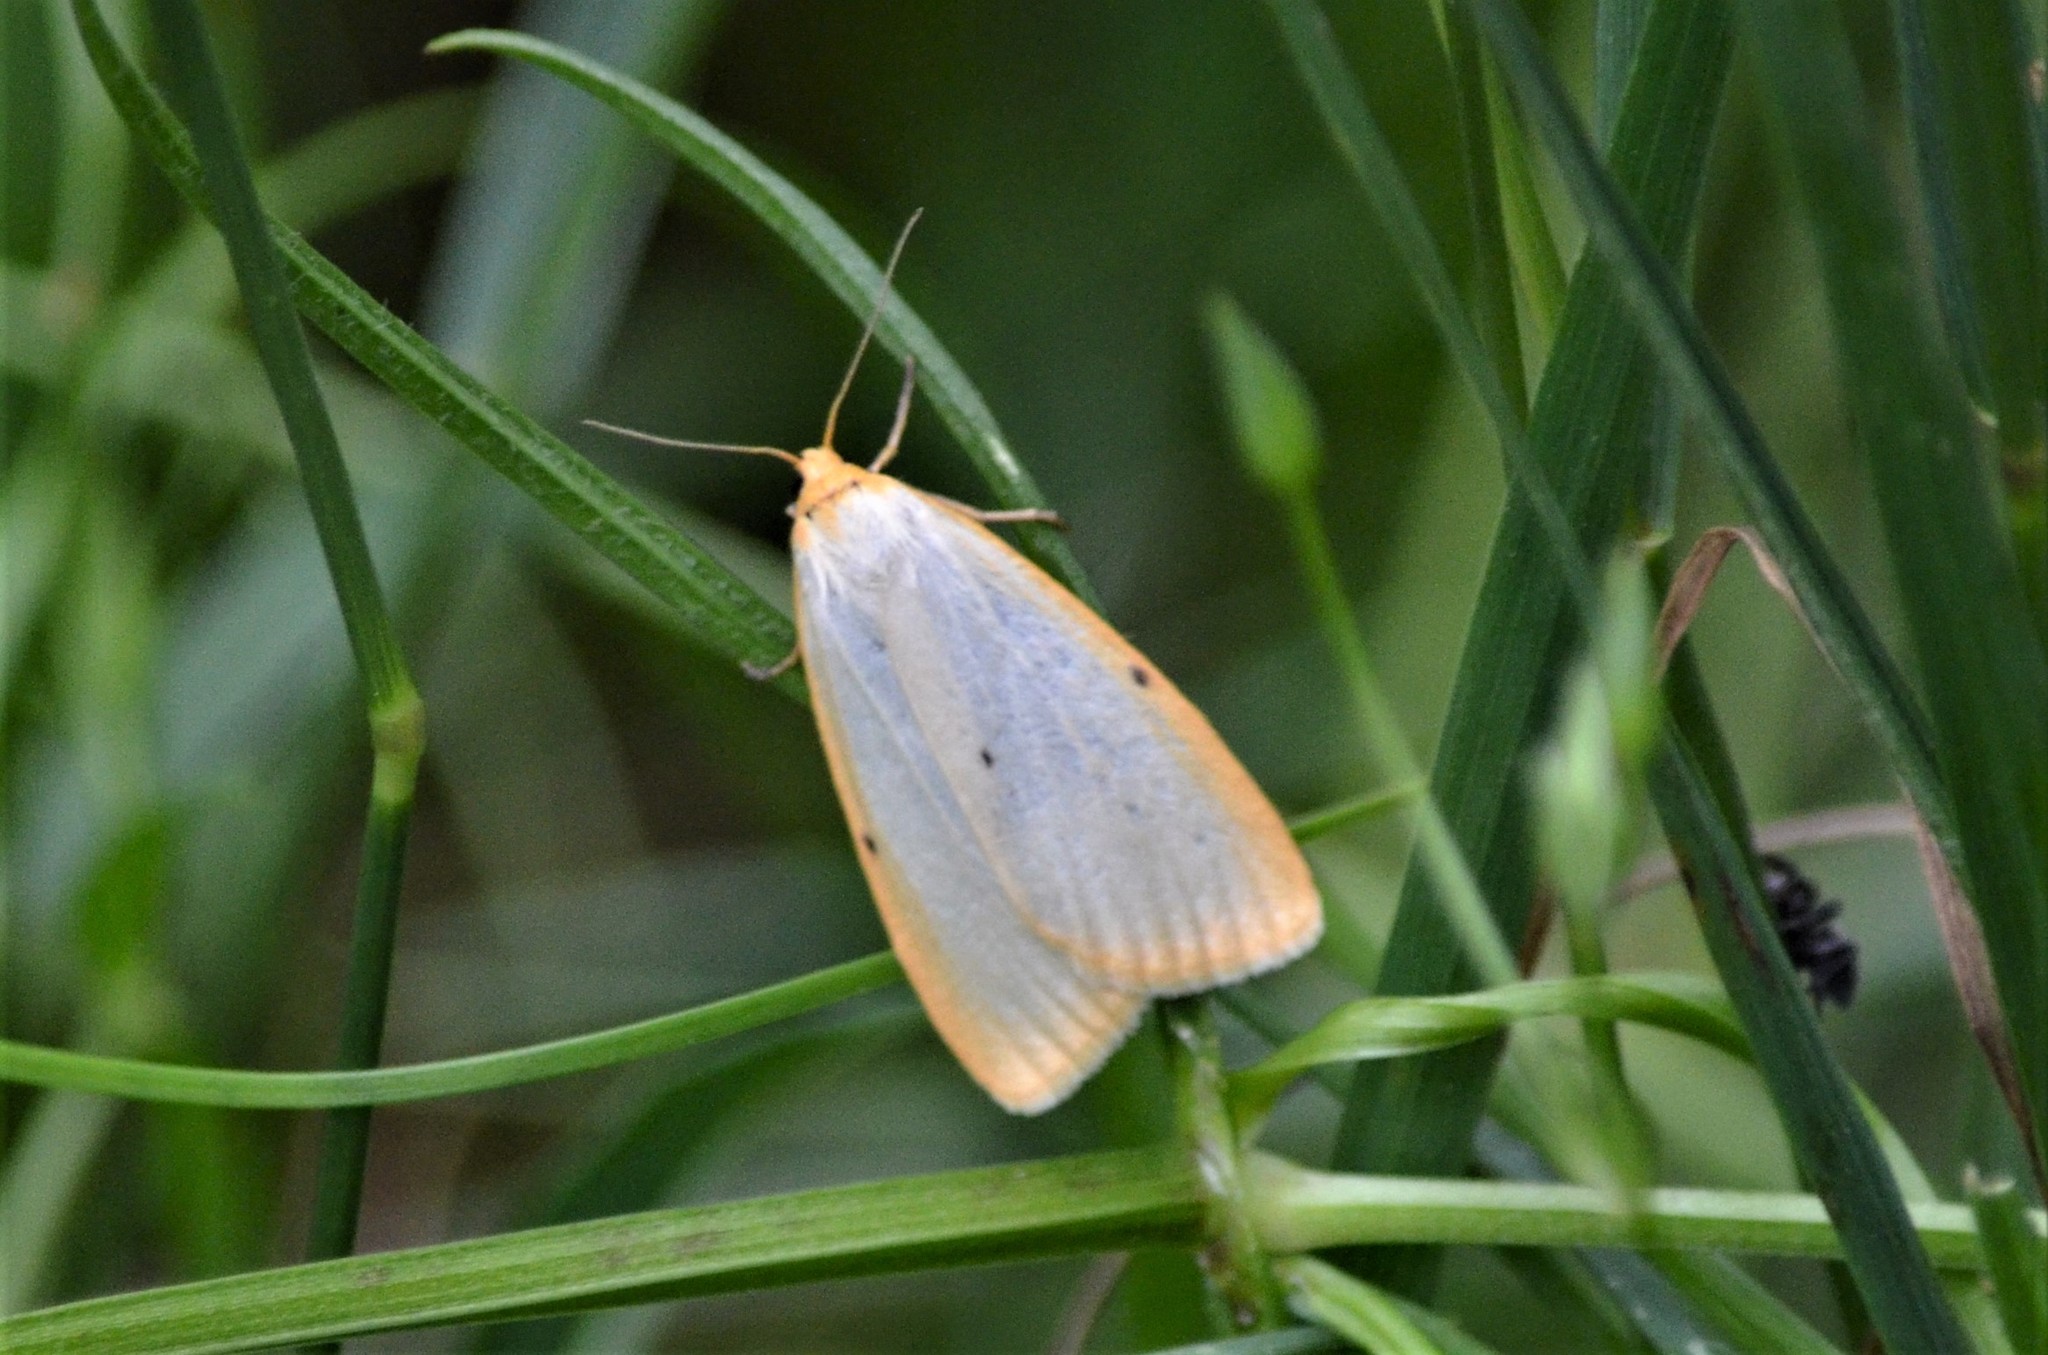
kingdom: Animalia
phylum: Arthropoda
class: Insecta
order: Lepidoptera
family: Erebidae
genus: Cybosia
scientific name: Cybosia mesomella
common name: Four-dotted footman
